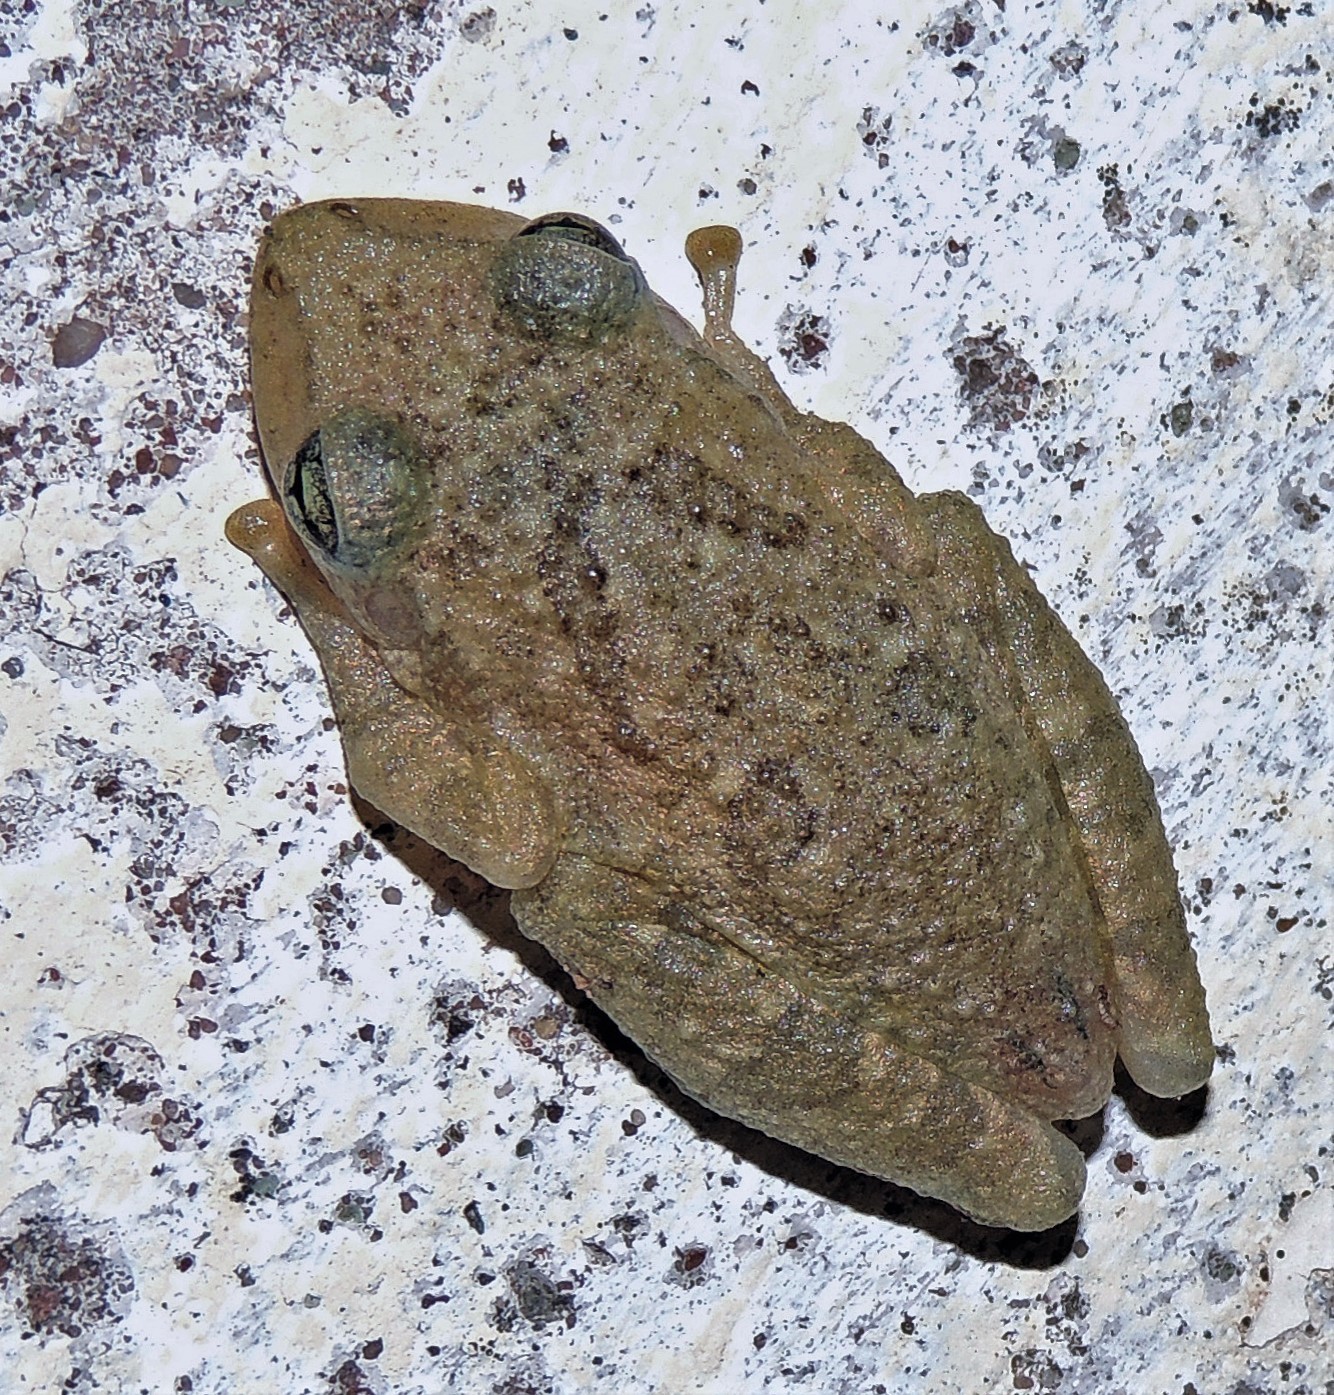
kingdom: Animalia
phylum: Chordata
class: Amphibia
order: Anura
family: Hylidae
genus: Scinax
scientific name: Scinax fuscovarius
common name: Fuscous-blotched treefrog
